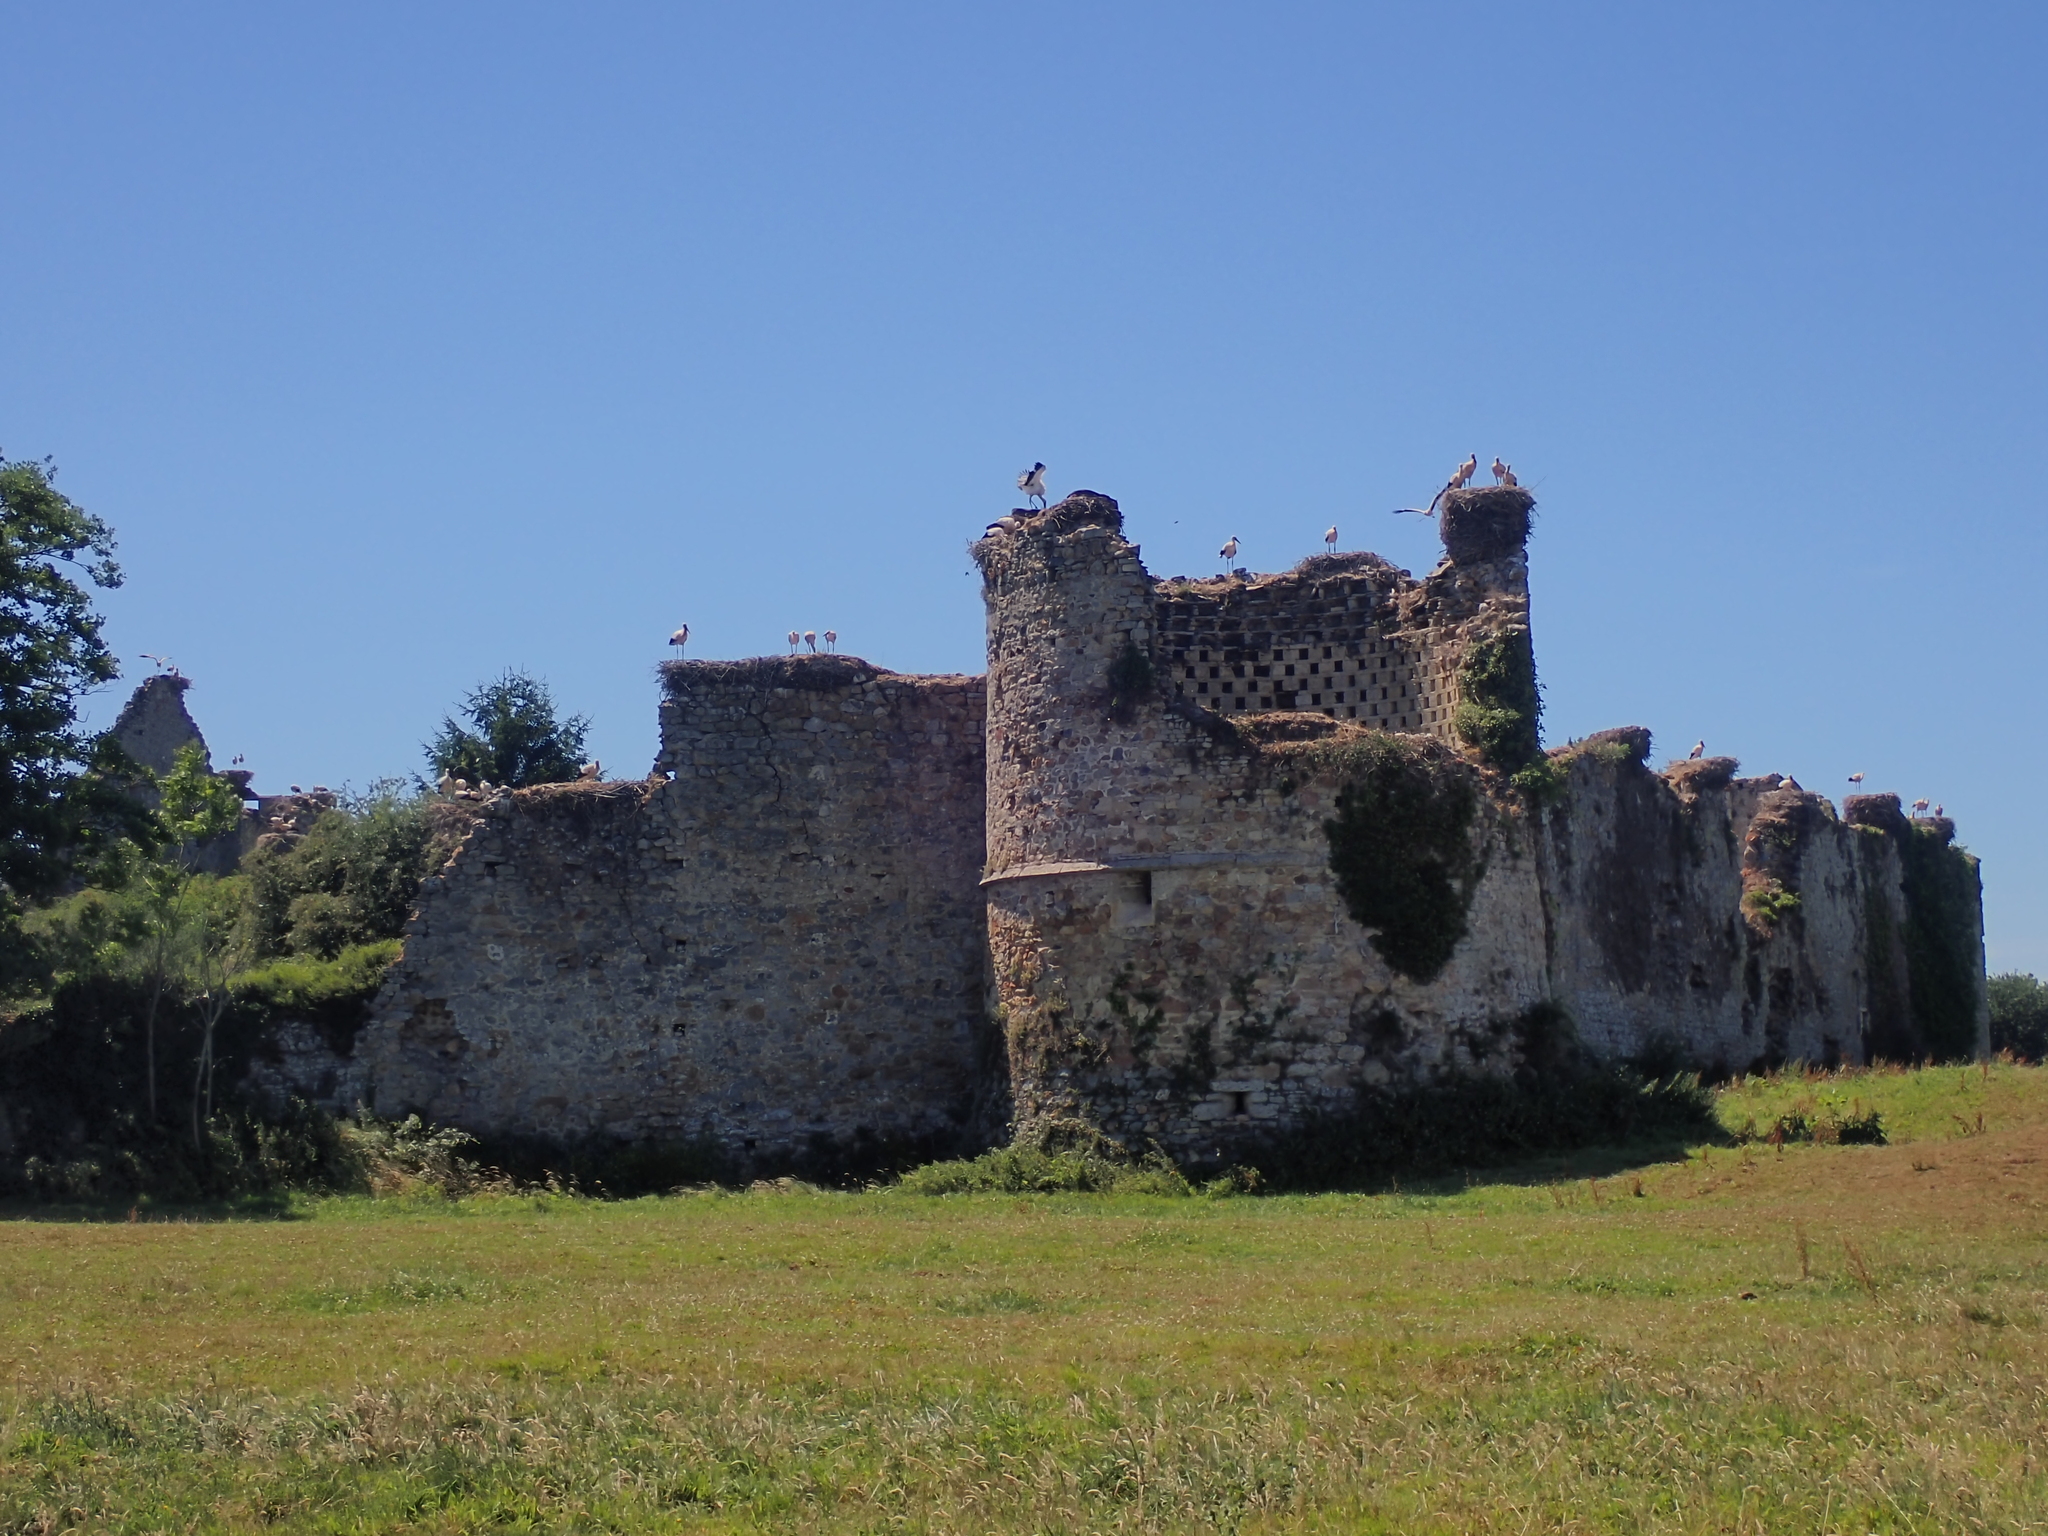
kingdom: Animalia
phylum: Chordata
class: Aves
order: Ciconiiformes
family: Ciconiidae
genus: Ciconia
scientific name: Ciconia ciconia
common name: White stork
